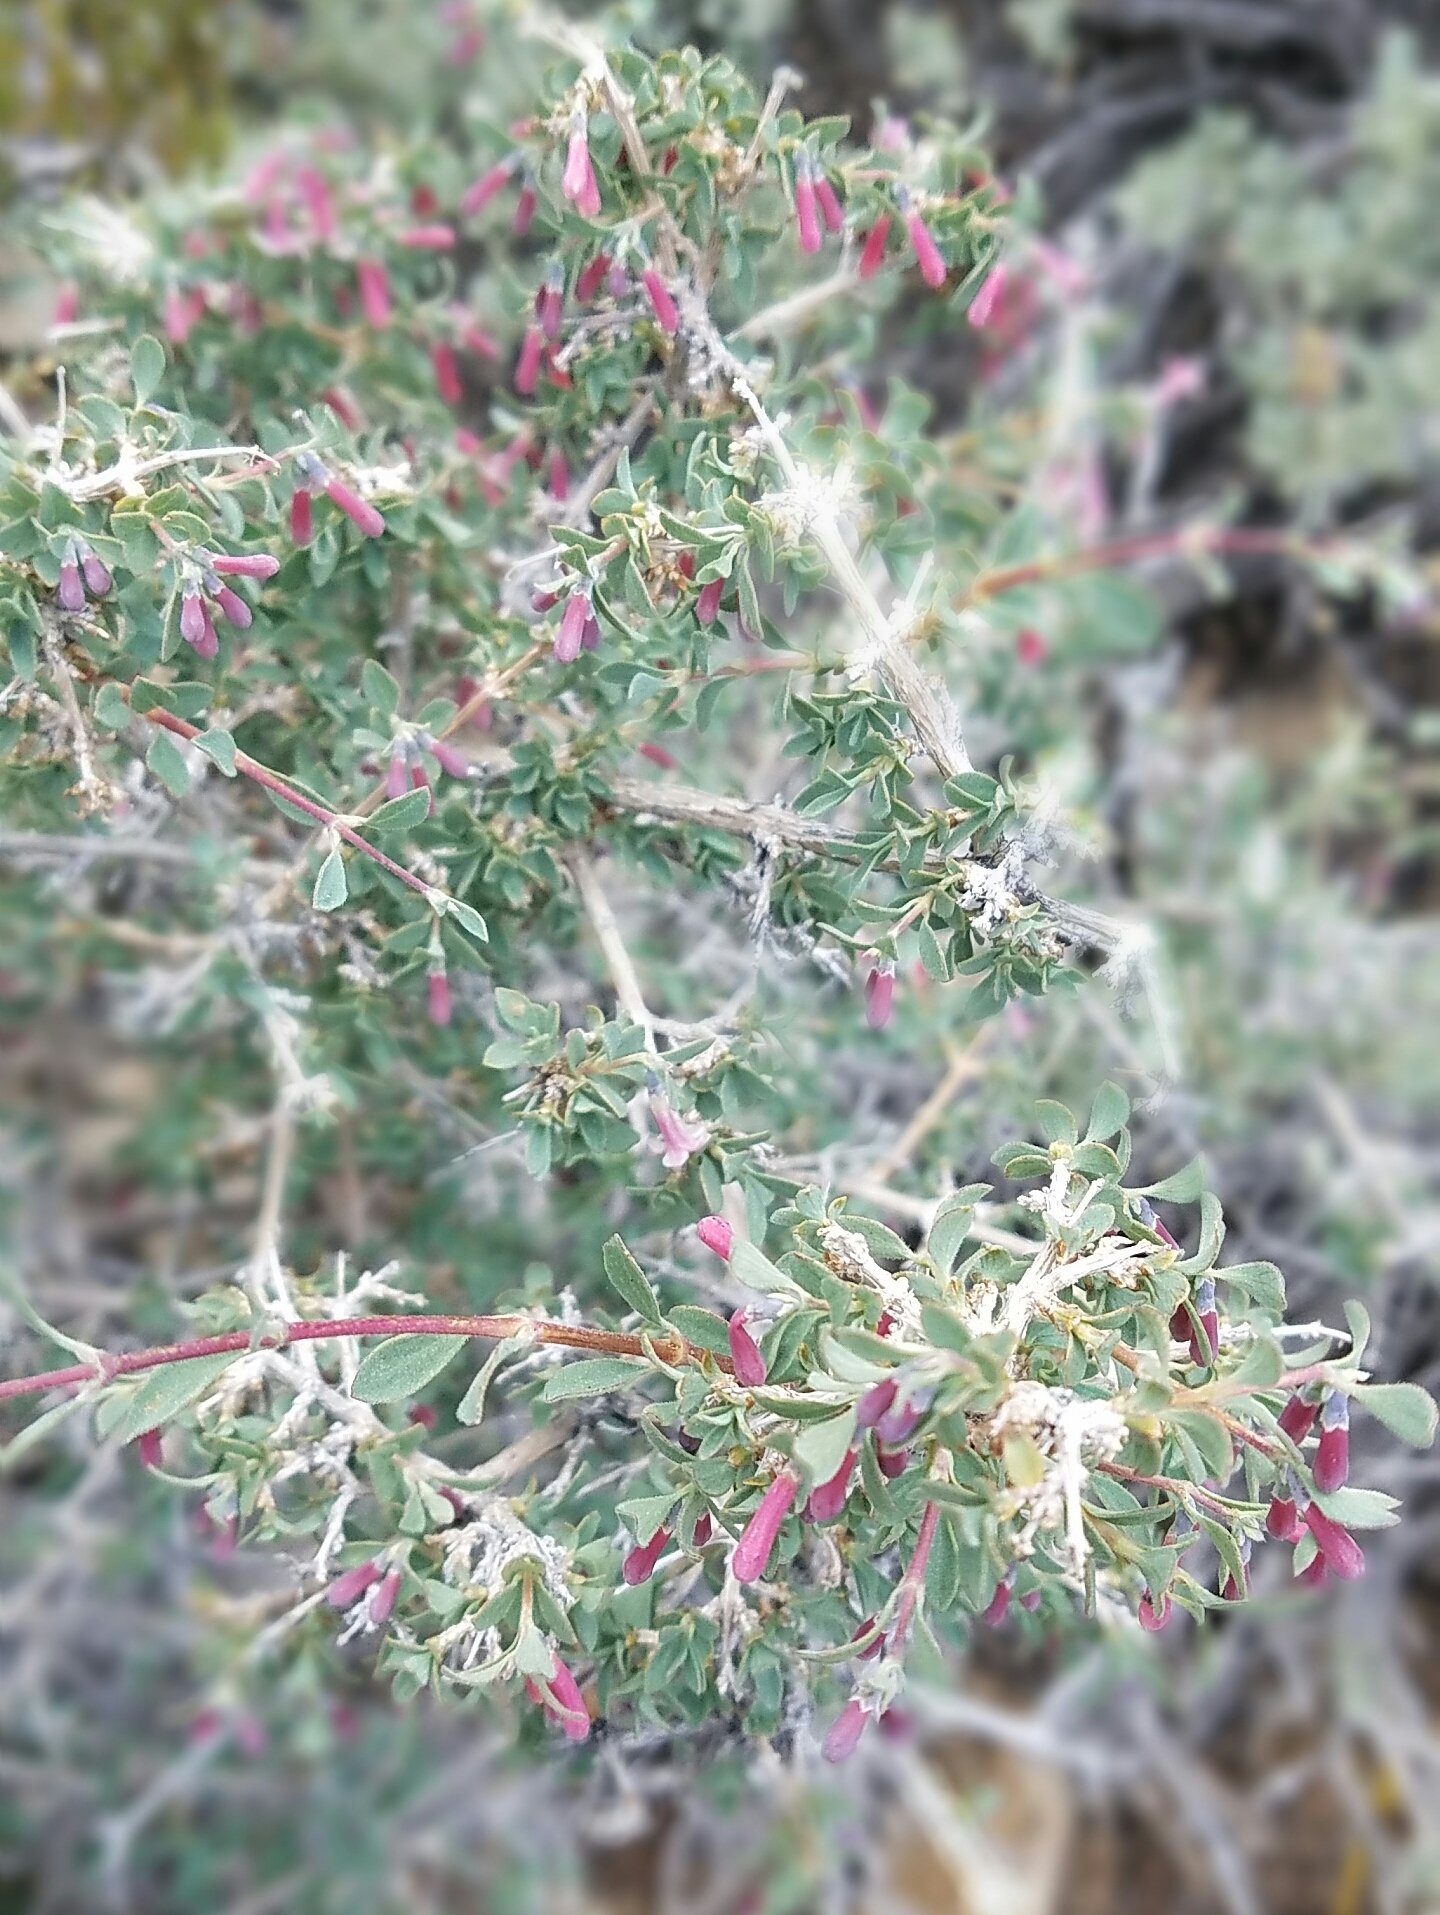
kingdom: Plantae
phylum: Tracheophyta
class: Magnoliopsida
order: Dipsacales
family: Caprifoliaceae
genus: Symphoricarpos
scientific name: Symphoricarpos longiflorus
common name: Fragrant snowberry
